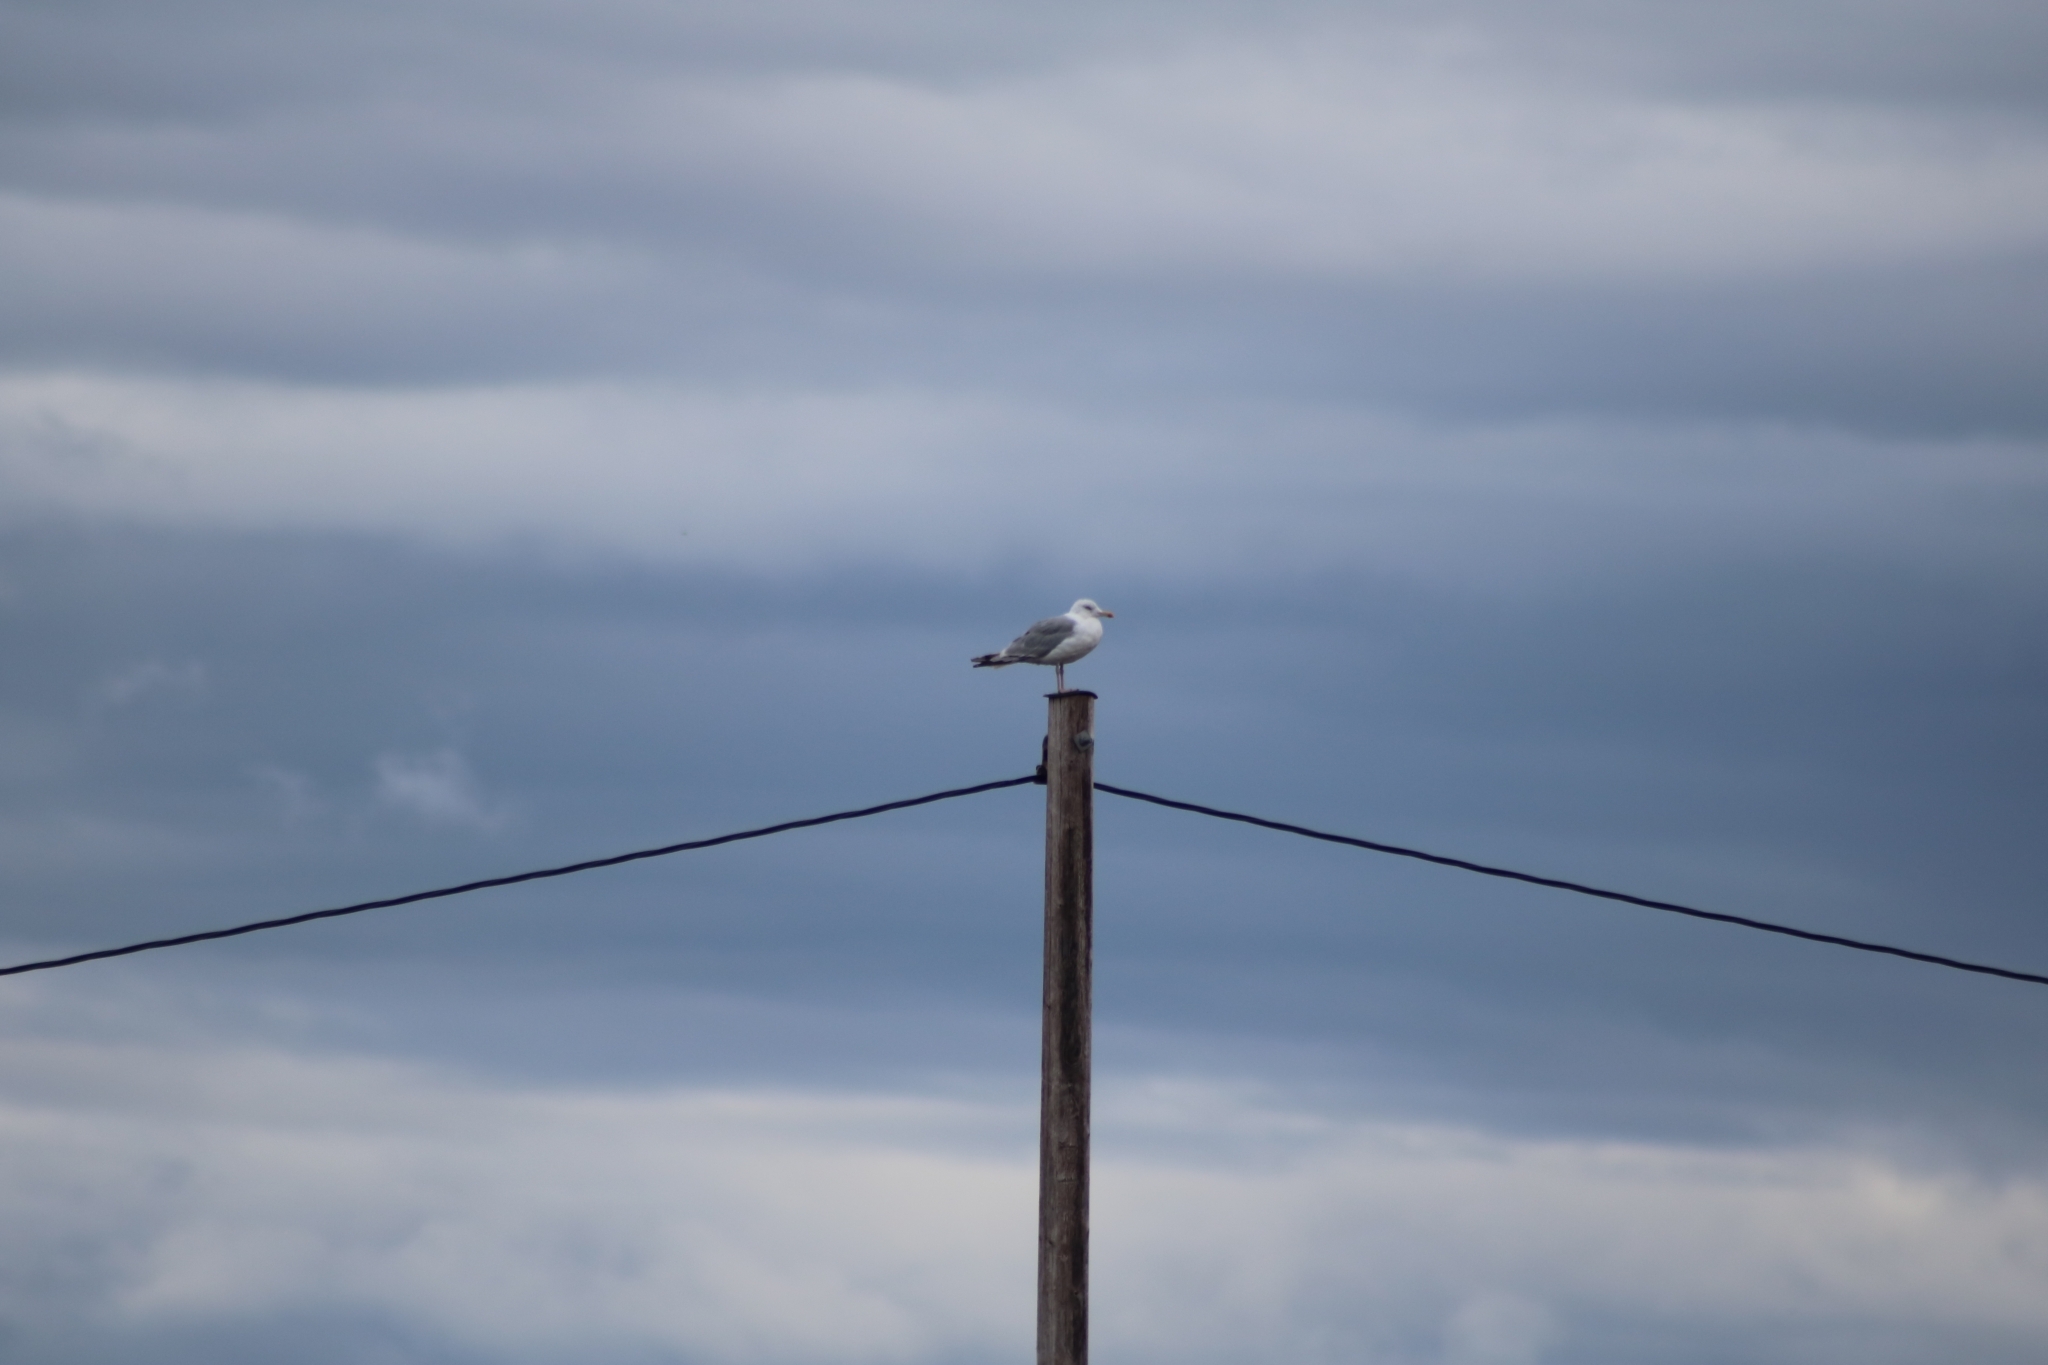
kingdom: Animalia
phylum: Chordata
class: Aves
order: Charadriiformes
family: Laridae
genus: Larus
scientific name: Larus argentatus
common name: Herring gull
